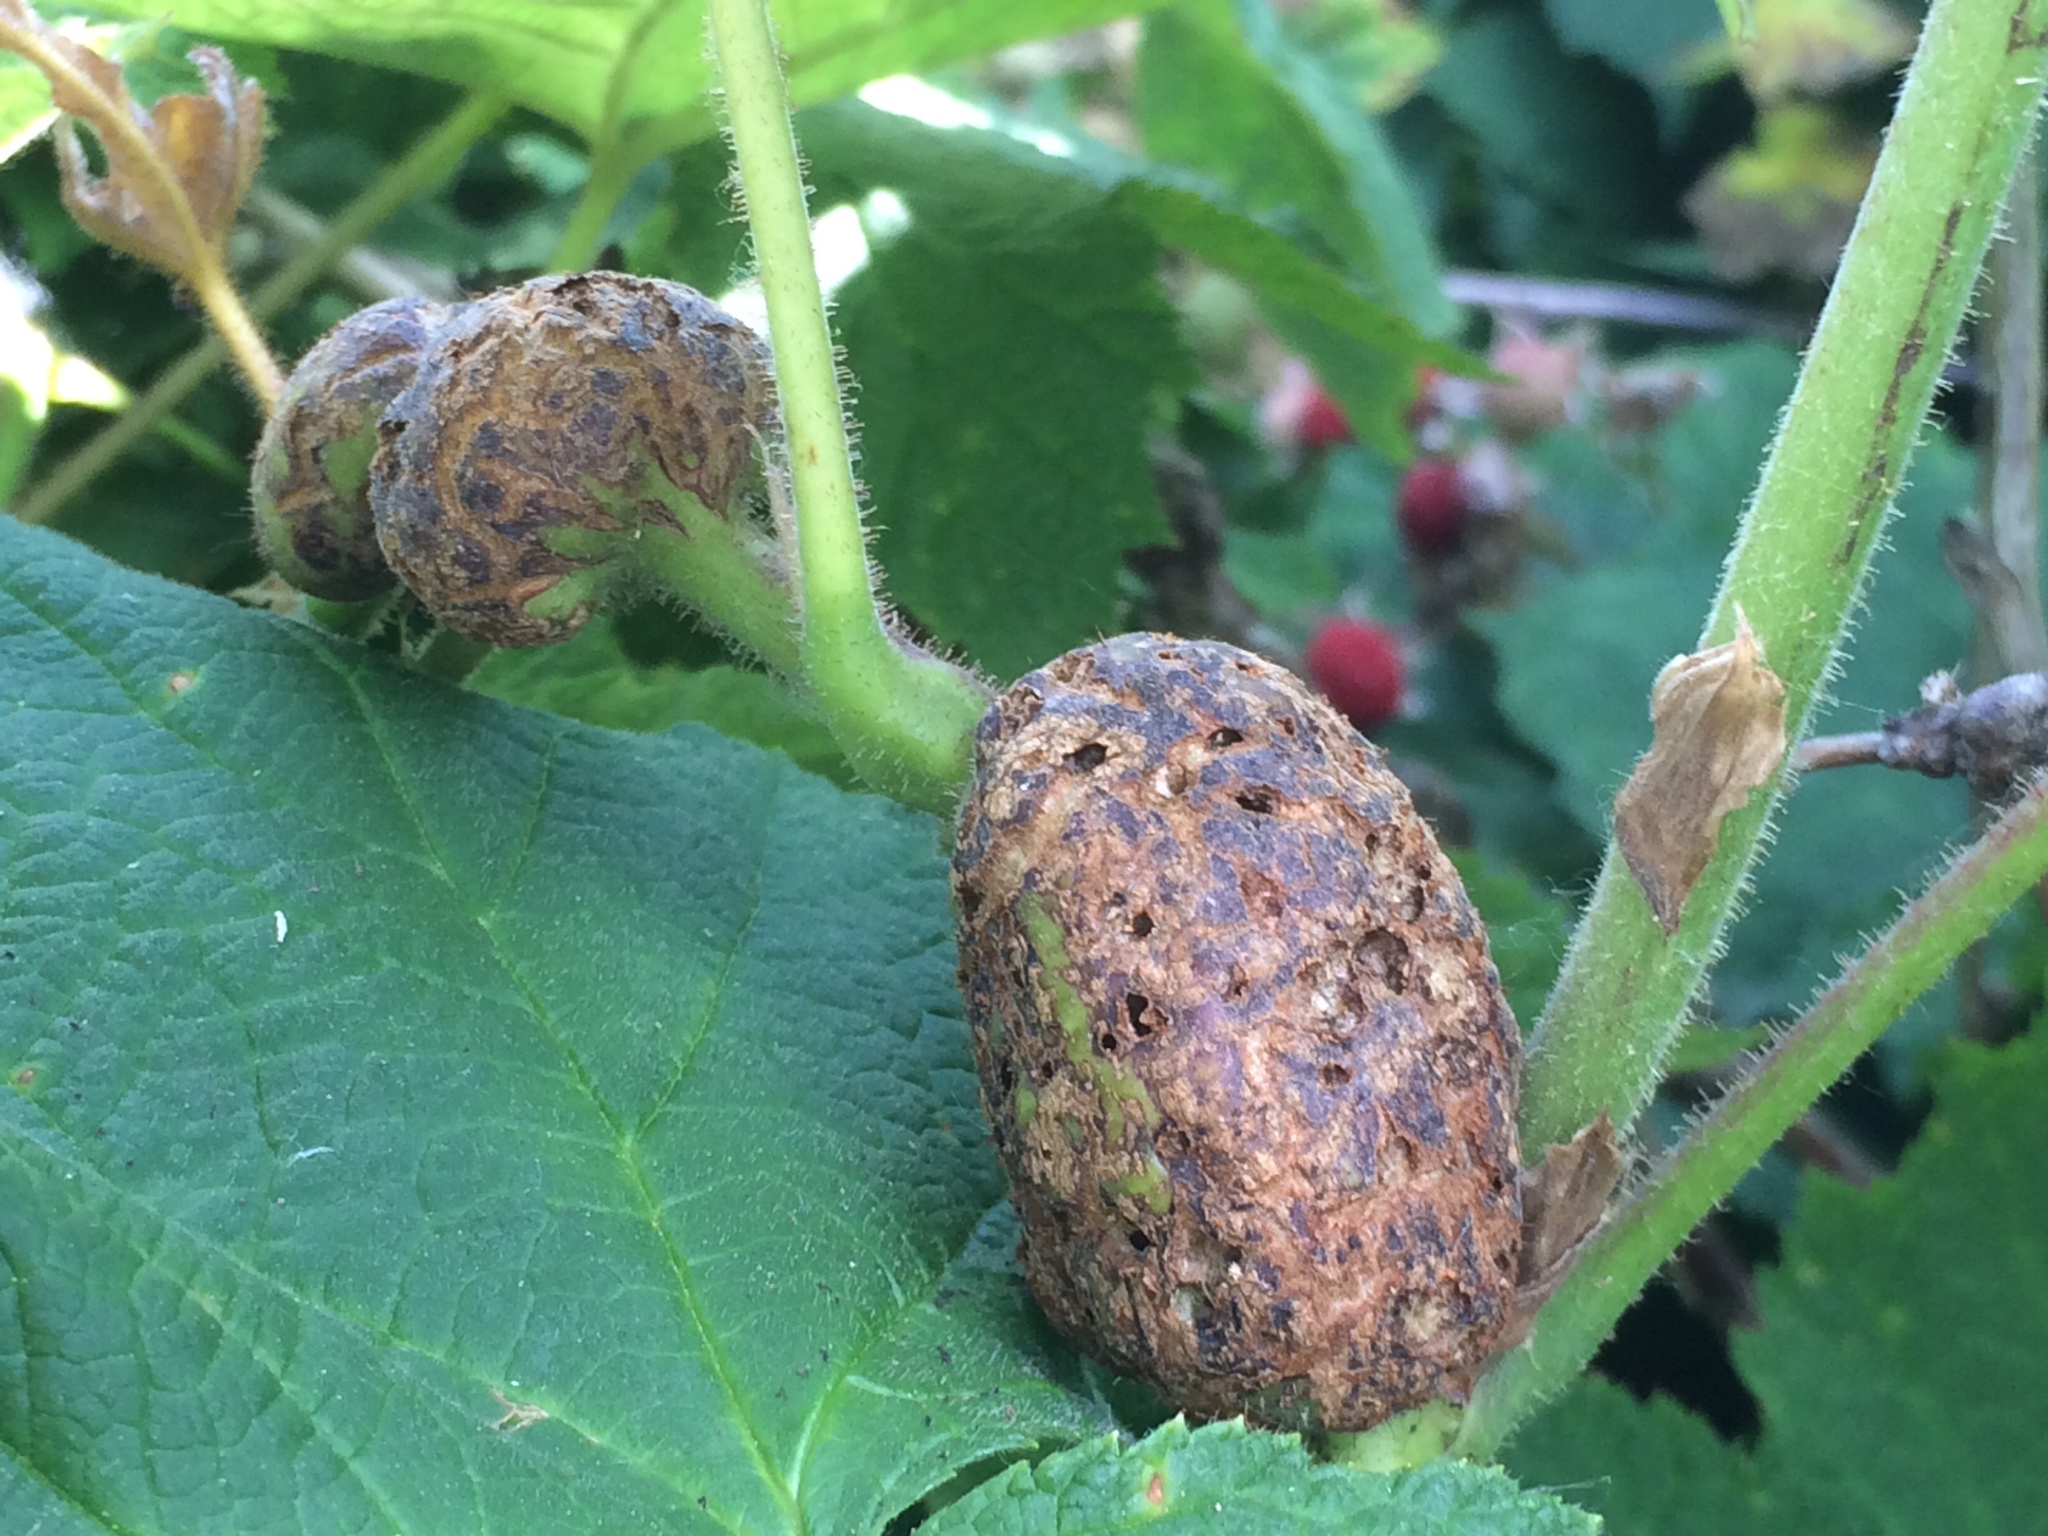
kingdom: Animalia
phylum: Arthropoda
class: Insecta
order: Hymenoptera
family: Cynipidae
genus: Diastrophus
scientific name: Diastrophus
